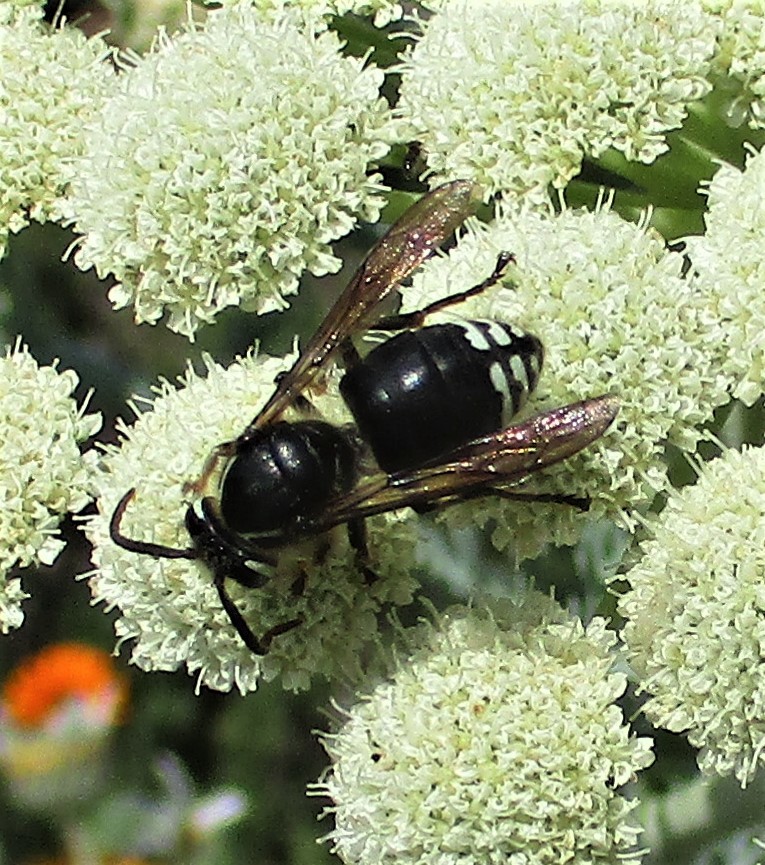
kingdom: Animalia
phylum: Arthropoda
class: Insecta
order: Hymenoptera
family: Vespidae
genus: Dolichovespula
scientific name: Dolichovespula maculata
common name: Bald-faced hornet
